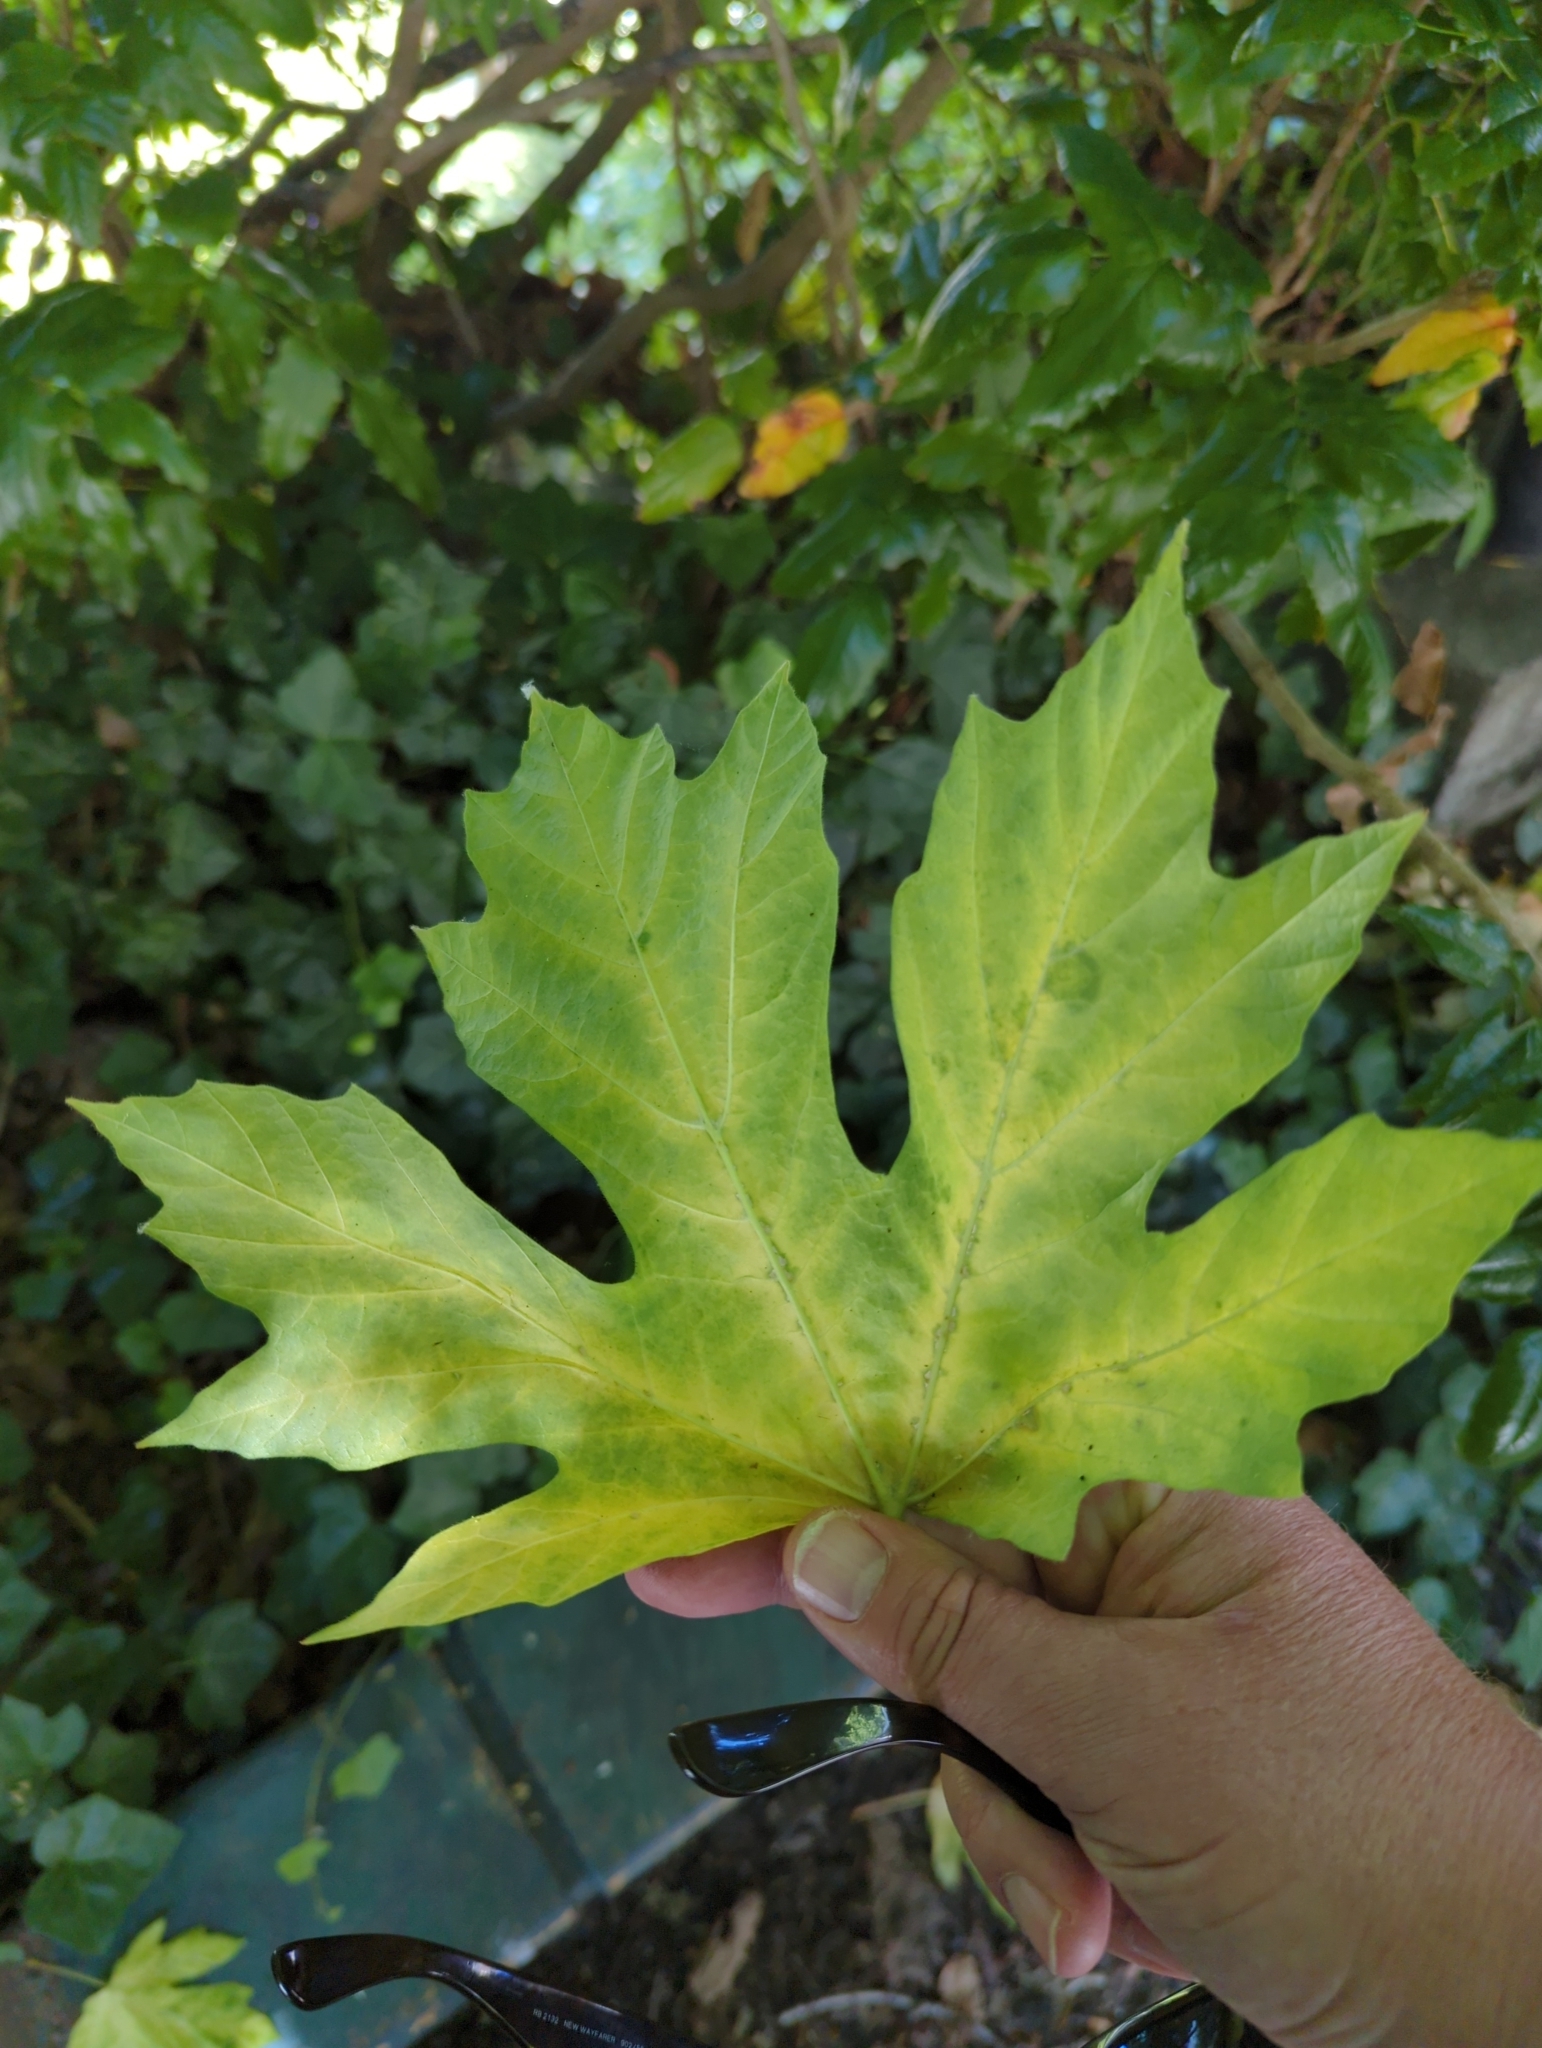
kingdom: Plantae
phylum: Tracheophyta
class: Magnoliopsida
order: Sapindales
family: Sapindaceae
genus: Acer
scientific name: Acer macrophyllum
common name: Oregon maple
